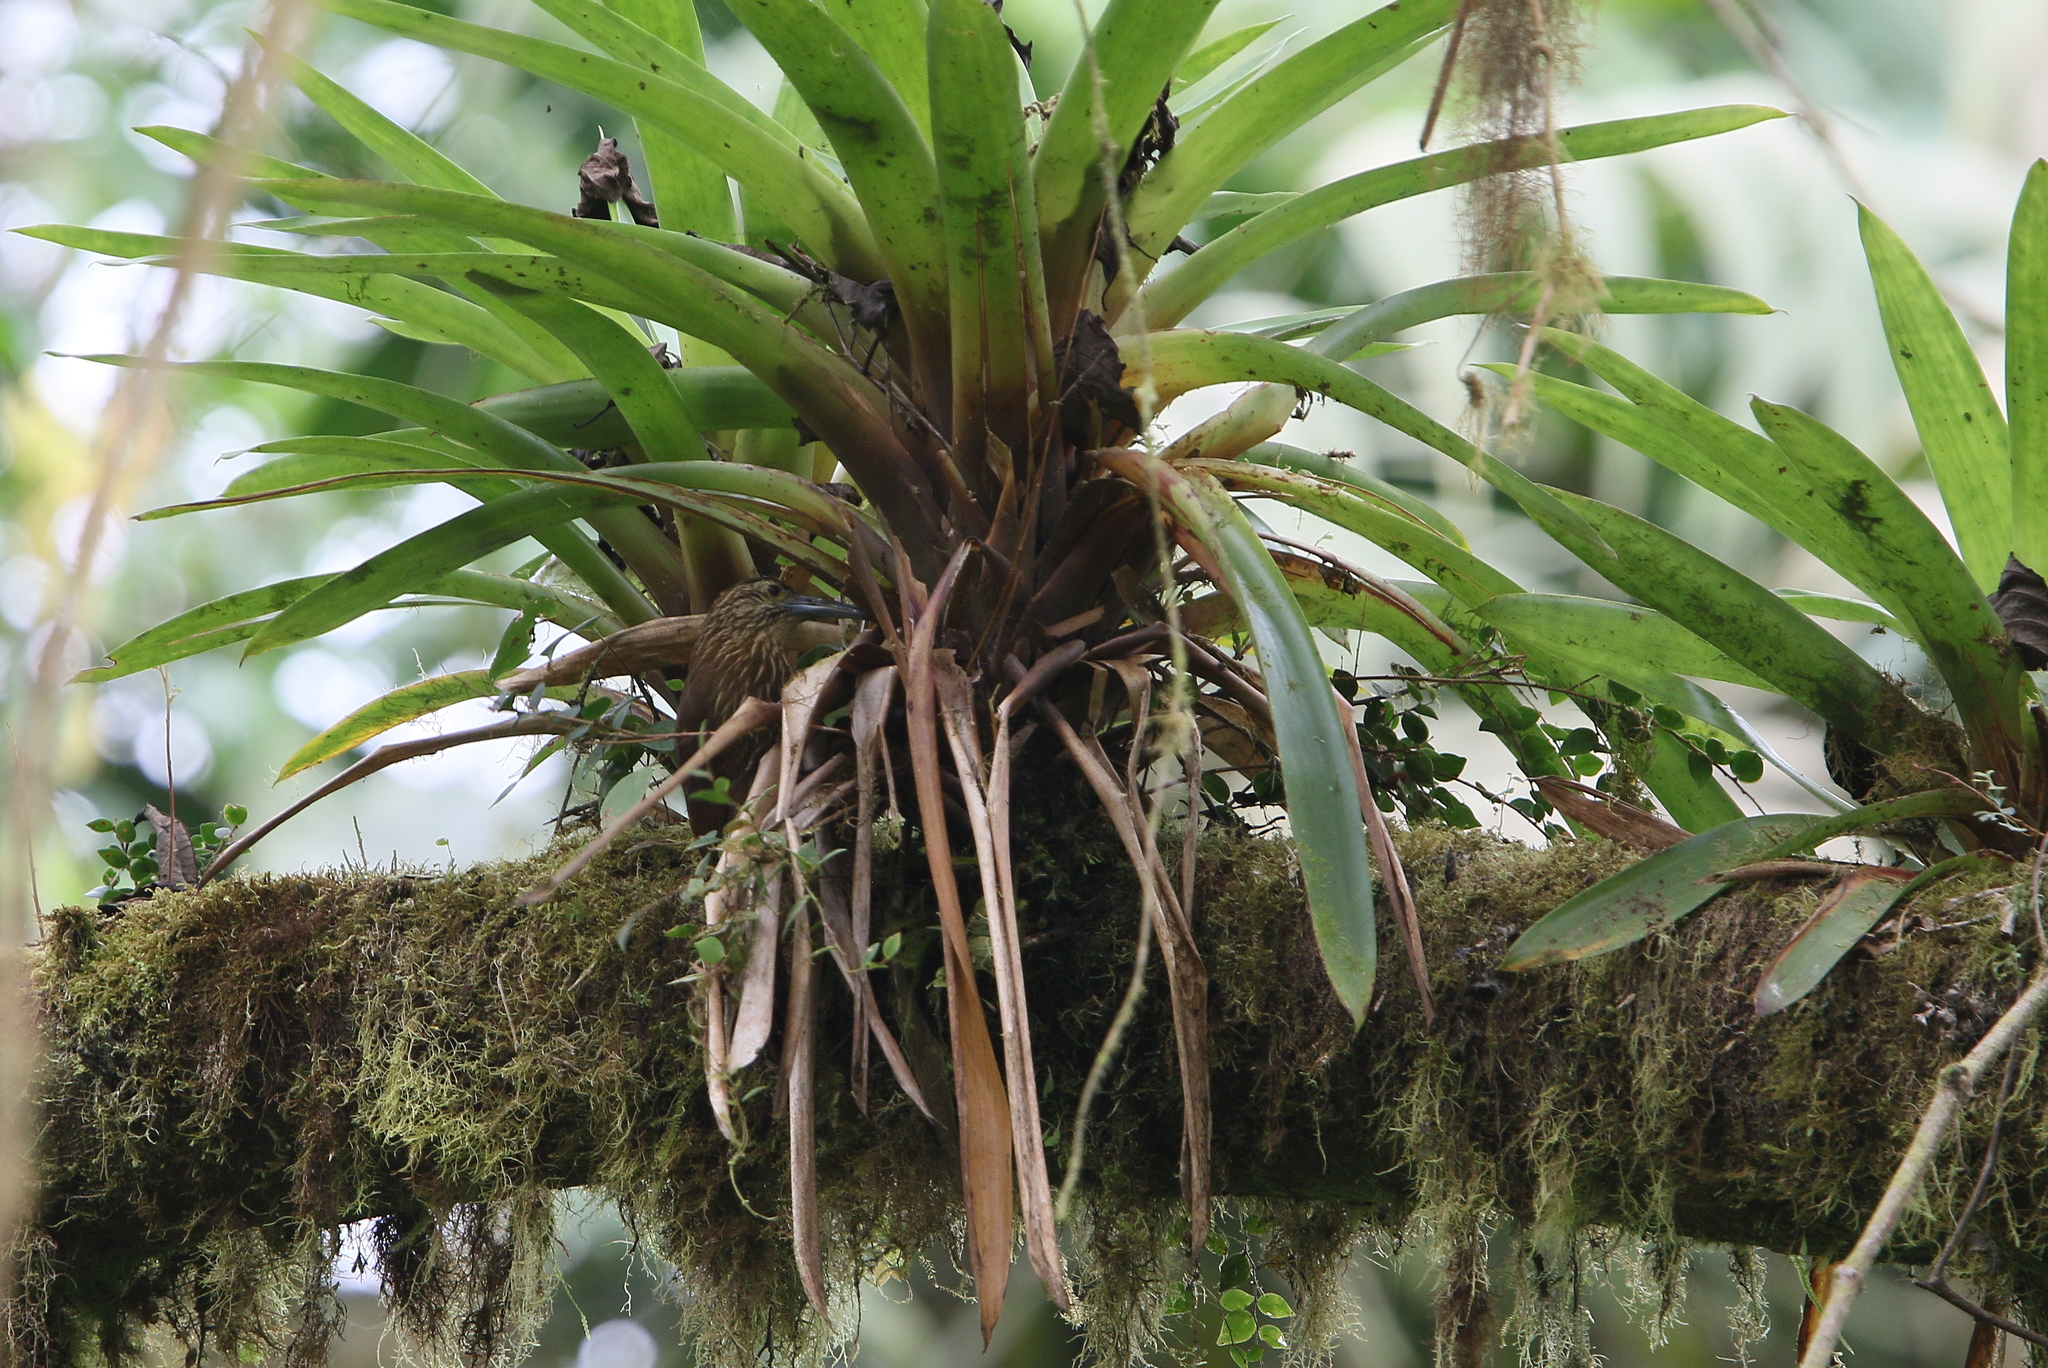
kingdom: Animalia
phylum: Chordata
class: Aves
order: Passeriformes
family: Furnariidae
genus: Xiphocolaptes
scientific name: Xiphocolaptes promeropirhynchus
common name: Strong-billed woodcreeper
